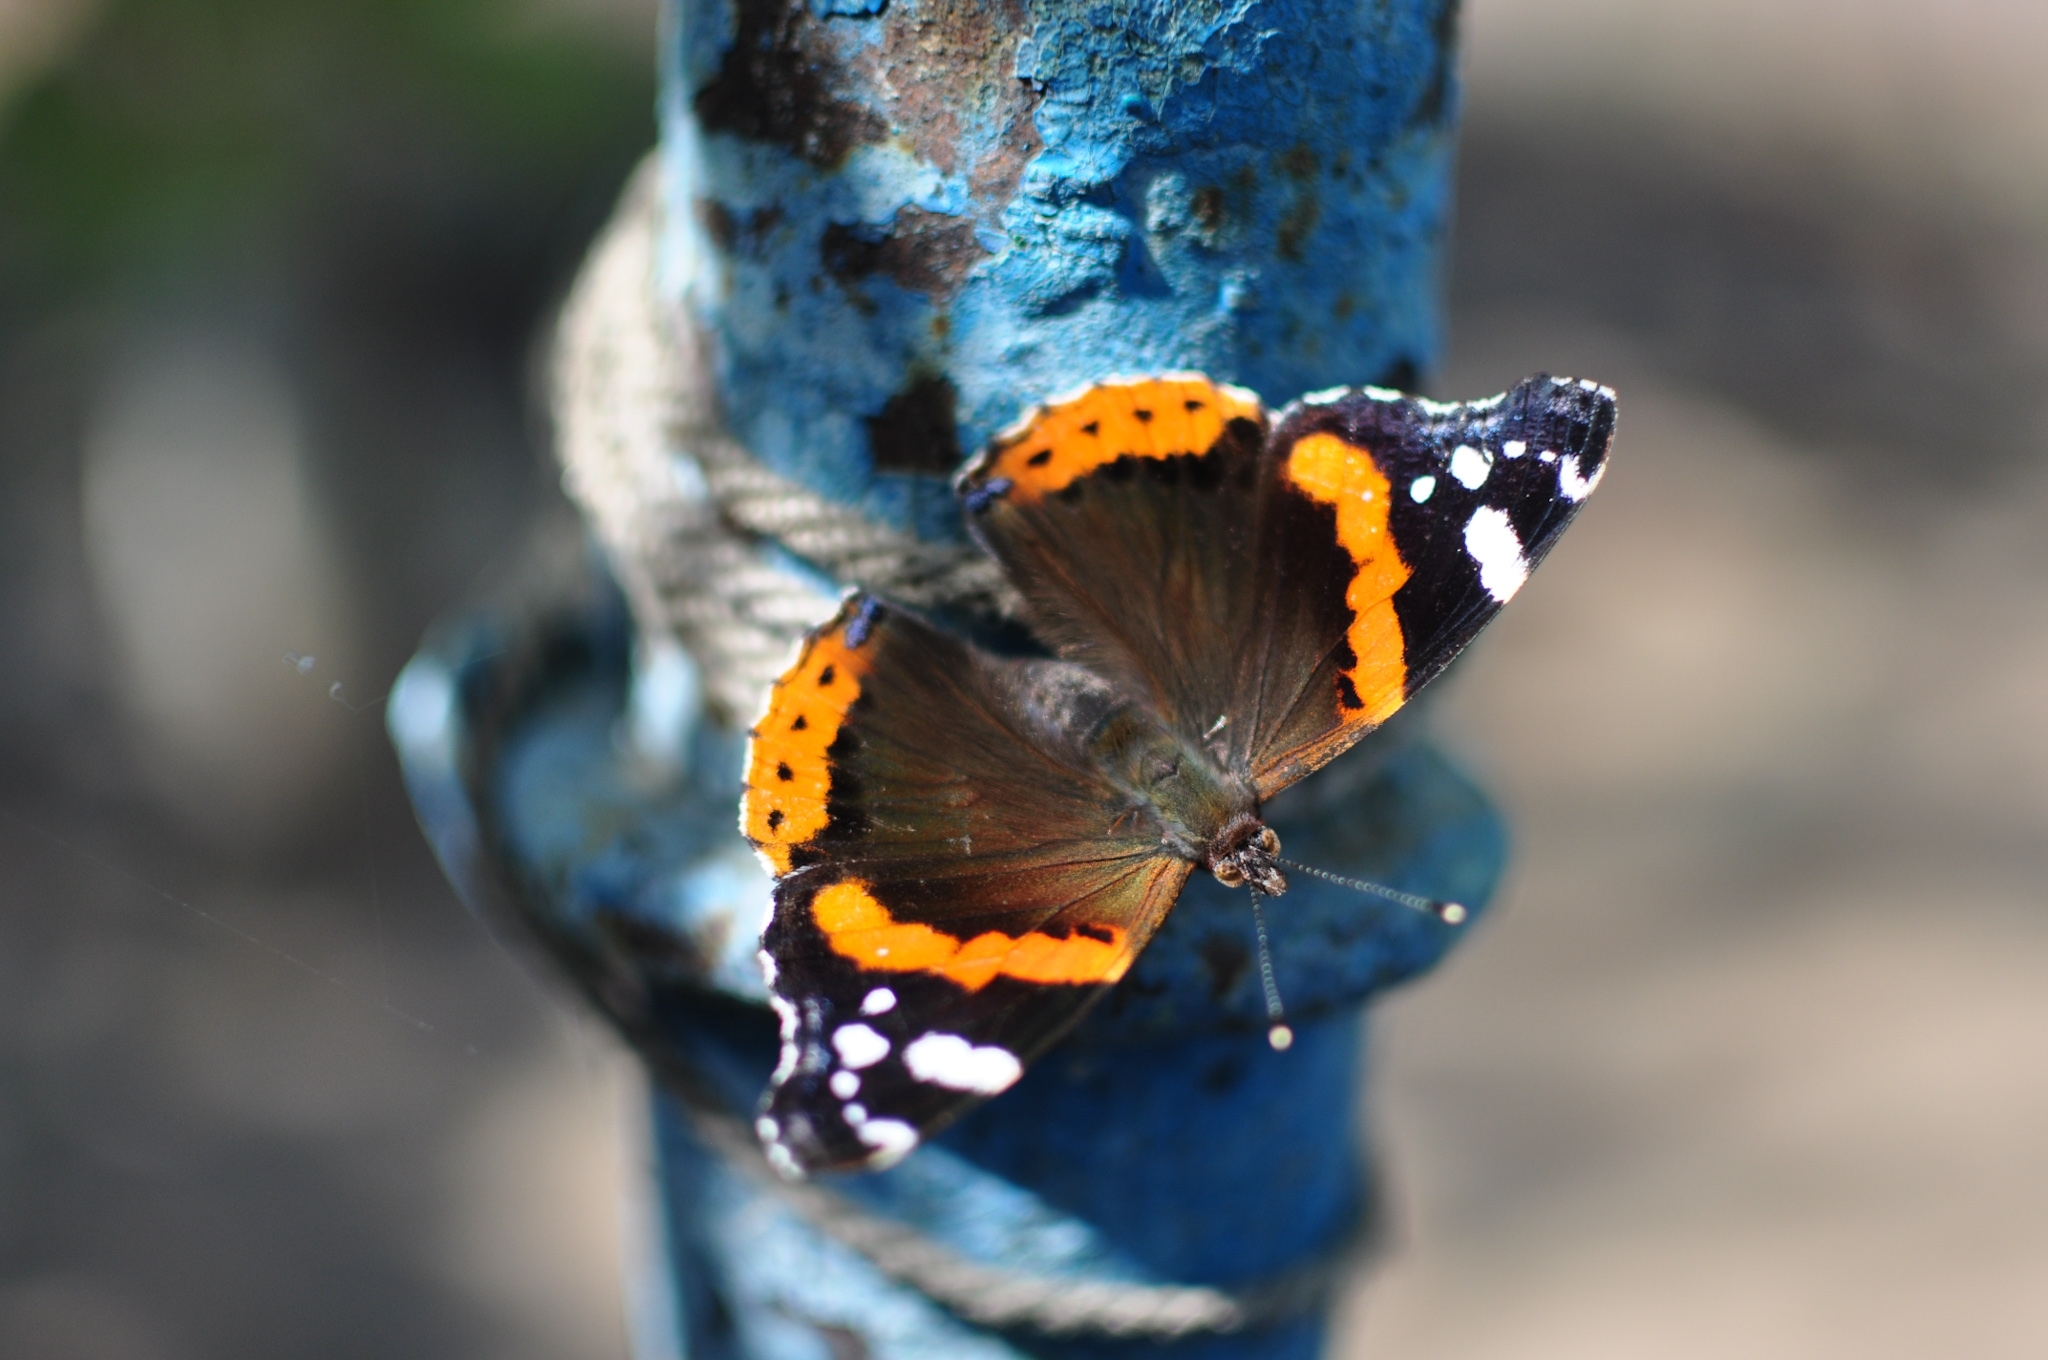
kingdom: Animalia
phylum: Arthropoda
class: Insecta
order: Lepidoptera
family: Nymphalidae
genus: Vanessa
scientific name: Vanessa atalanta
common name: Red admiral
